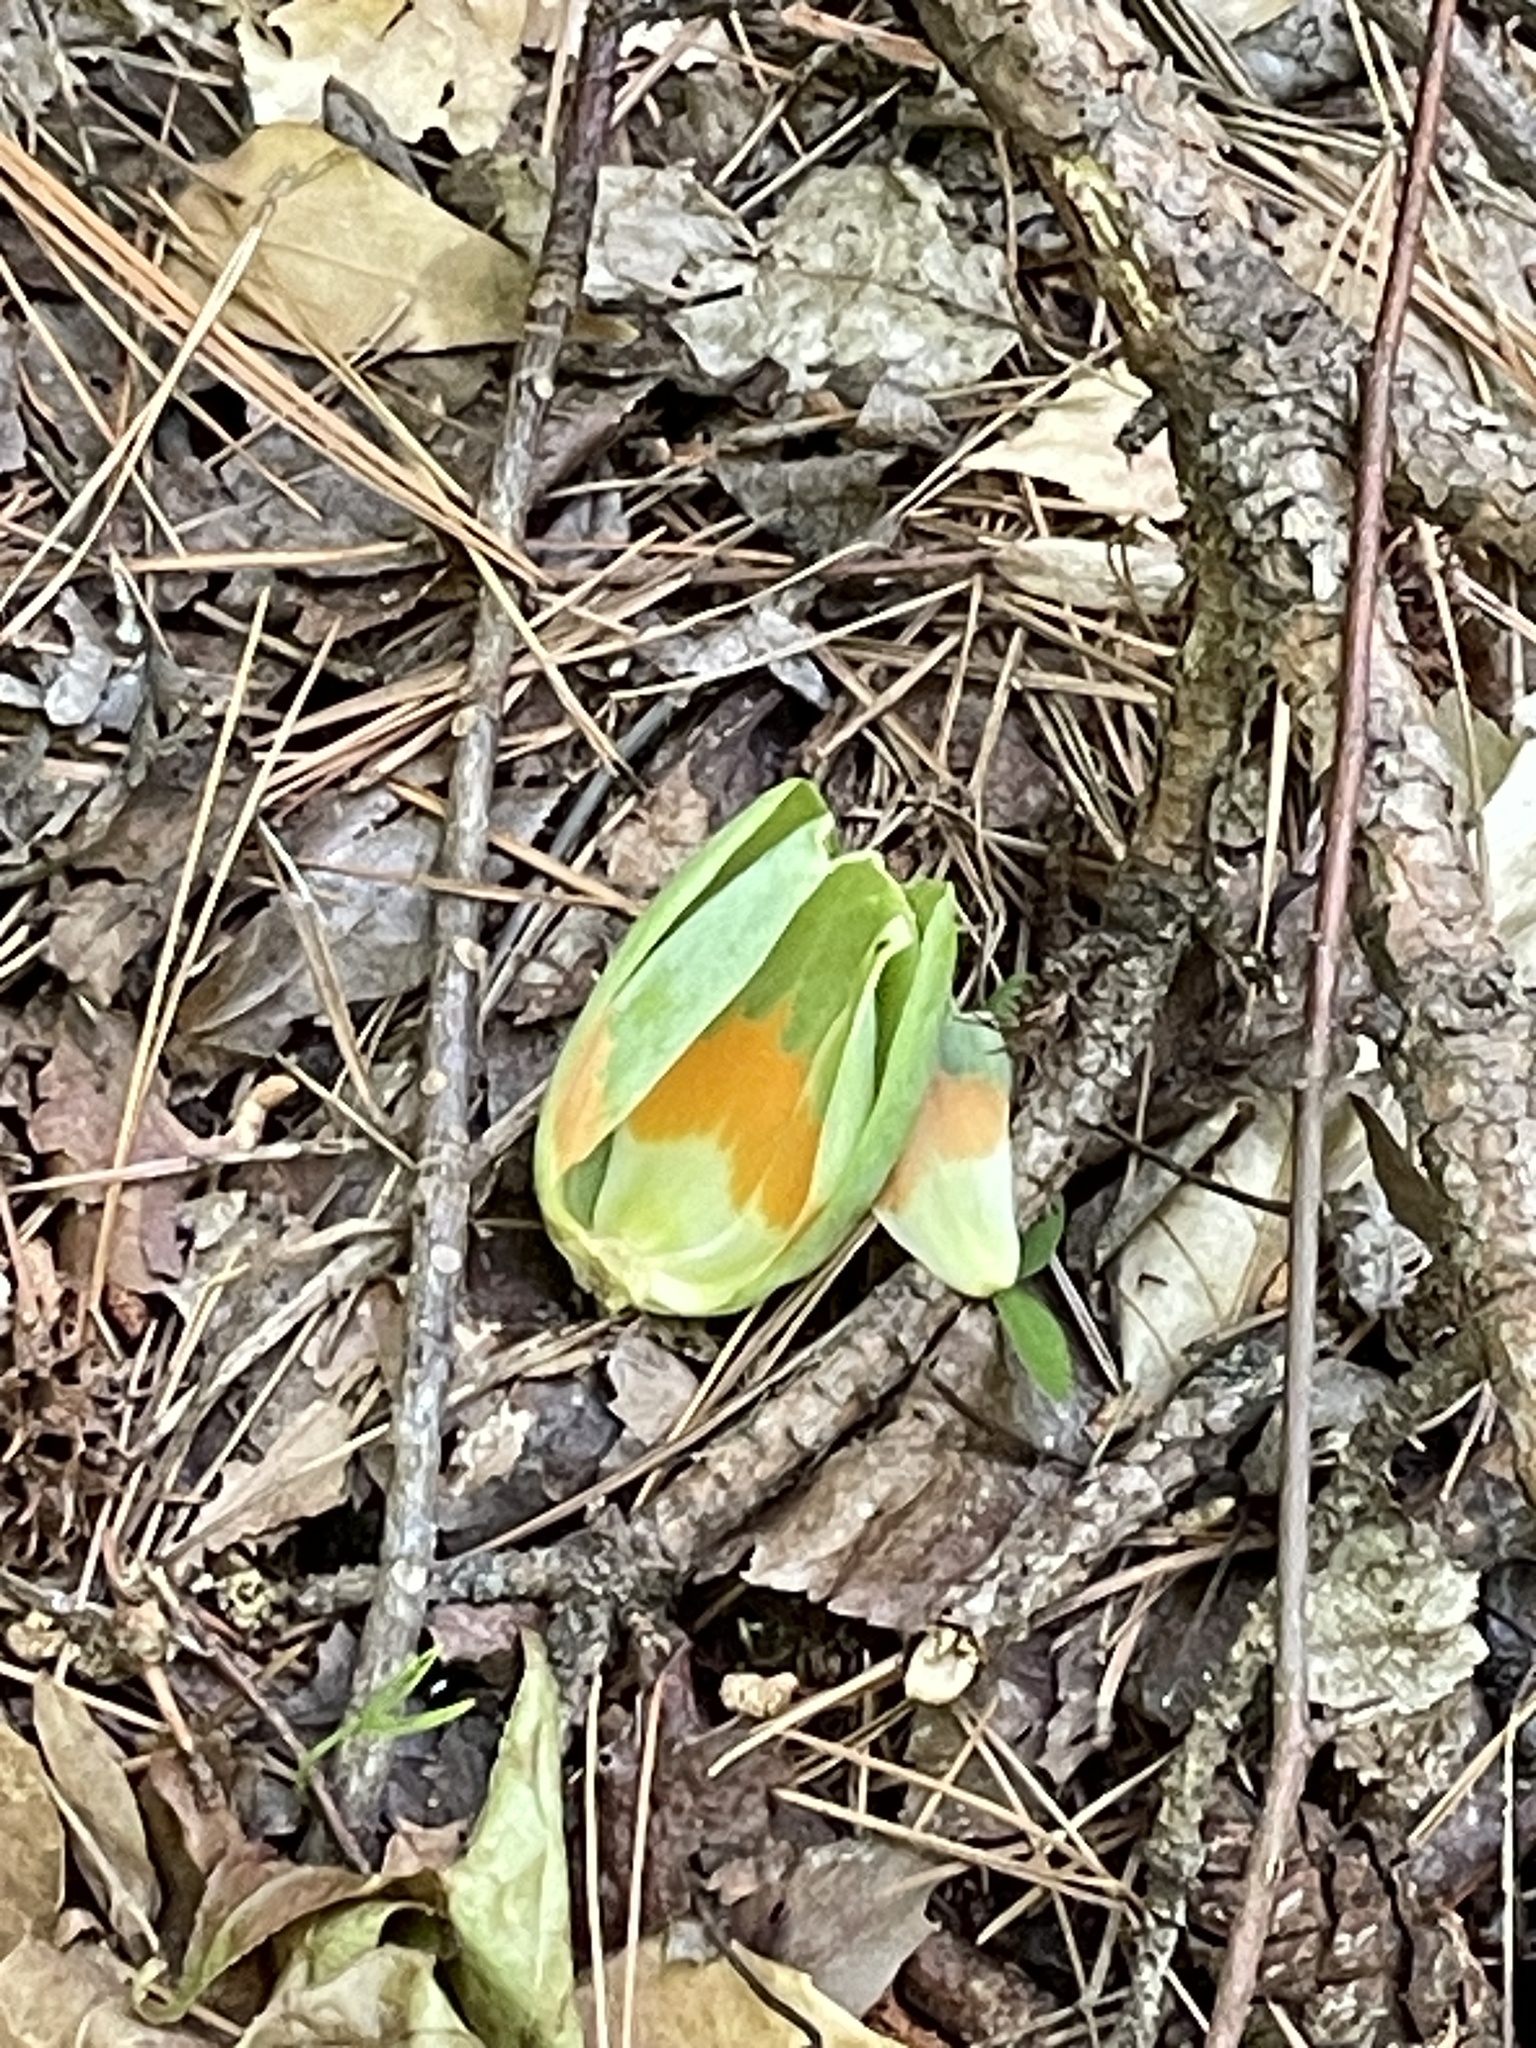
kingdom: Plantae
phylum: Tracheophyta
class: Magnoliopsida
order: Magnoliales
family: Magnoliaceae
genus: Liriodendron
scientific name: Liriodendron tulipifera
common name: Tulip tree
